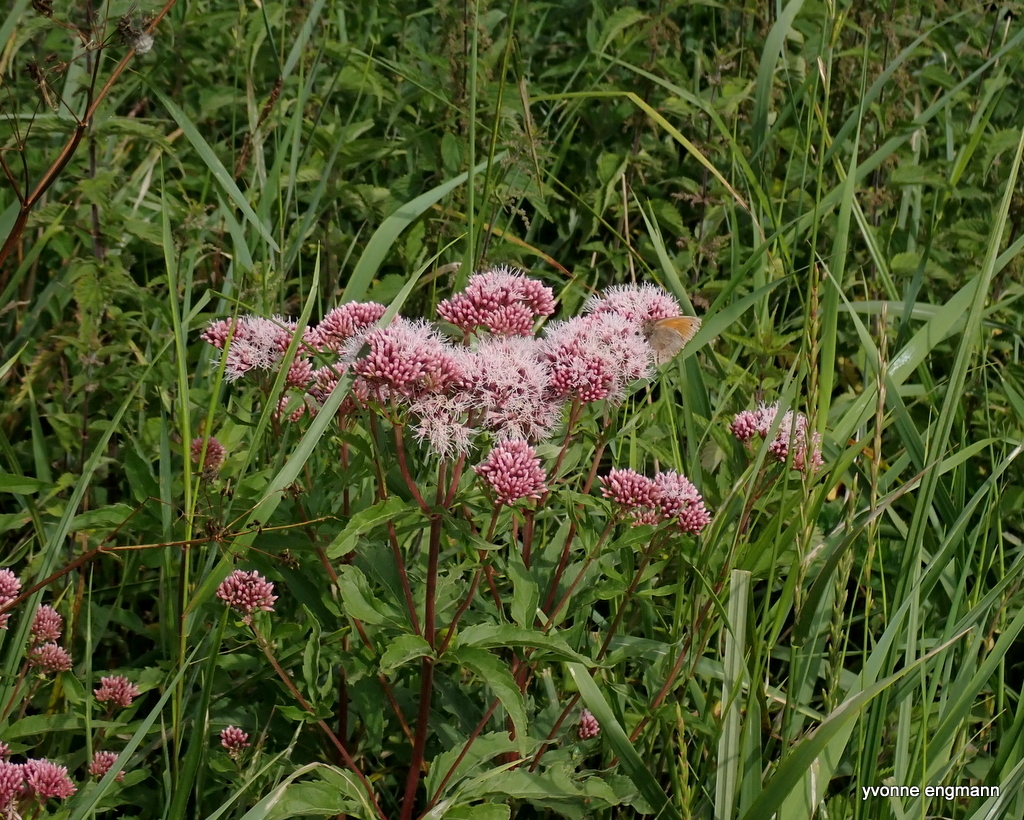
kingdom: Plantae
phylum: Tracheophyta
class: Magnoliopsida
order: Asterales
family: Asteraceae
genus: Eupatorium
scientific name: Eupatorium cannabinum
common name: Hemp-agrimony
